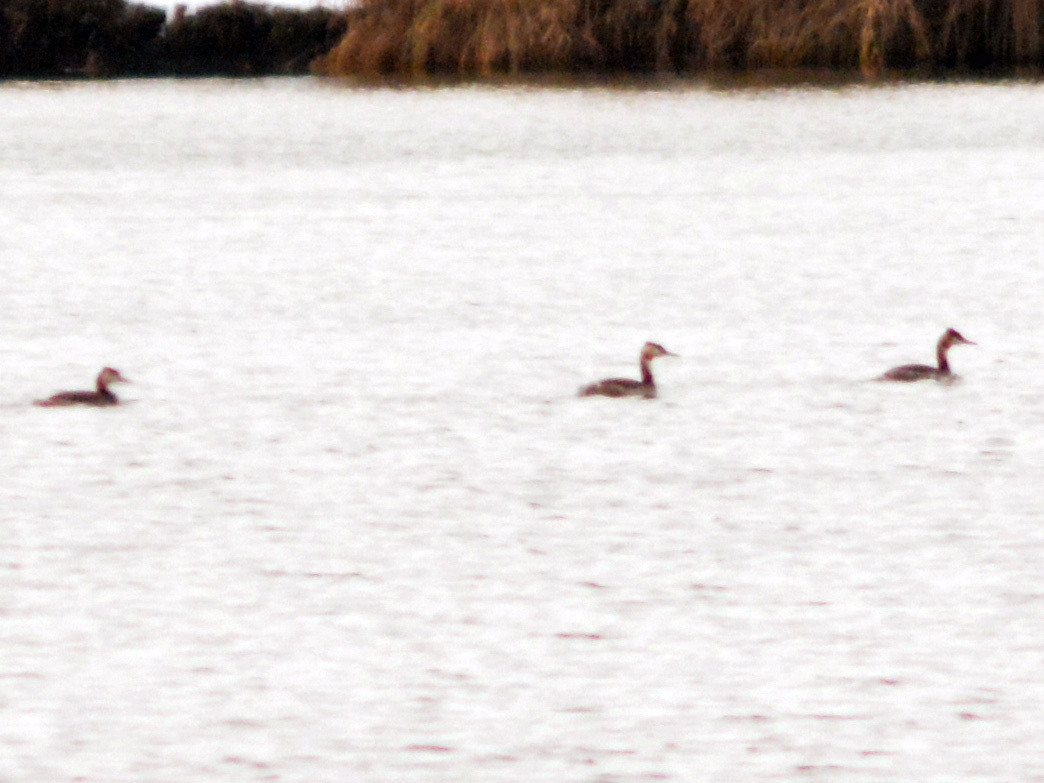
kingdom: Animalia
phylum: Chordata
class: Aves
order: Podicipediformes
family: Podicipedidae
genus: Podiceps
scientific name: Podiceps cristatus
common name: Great crested grebe
